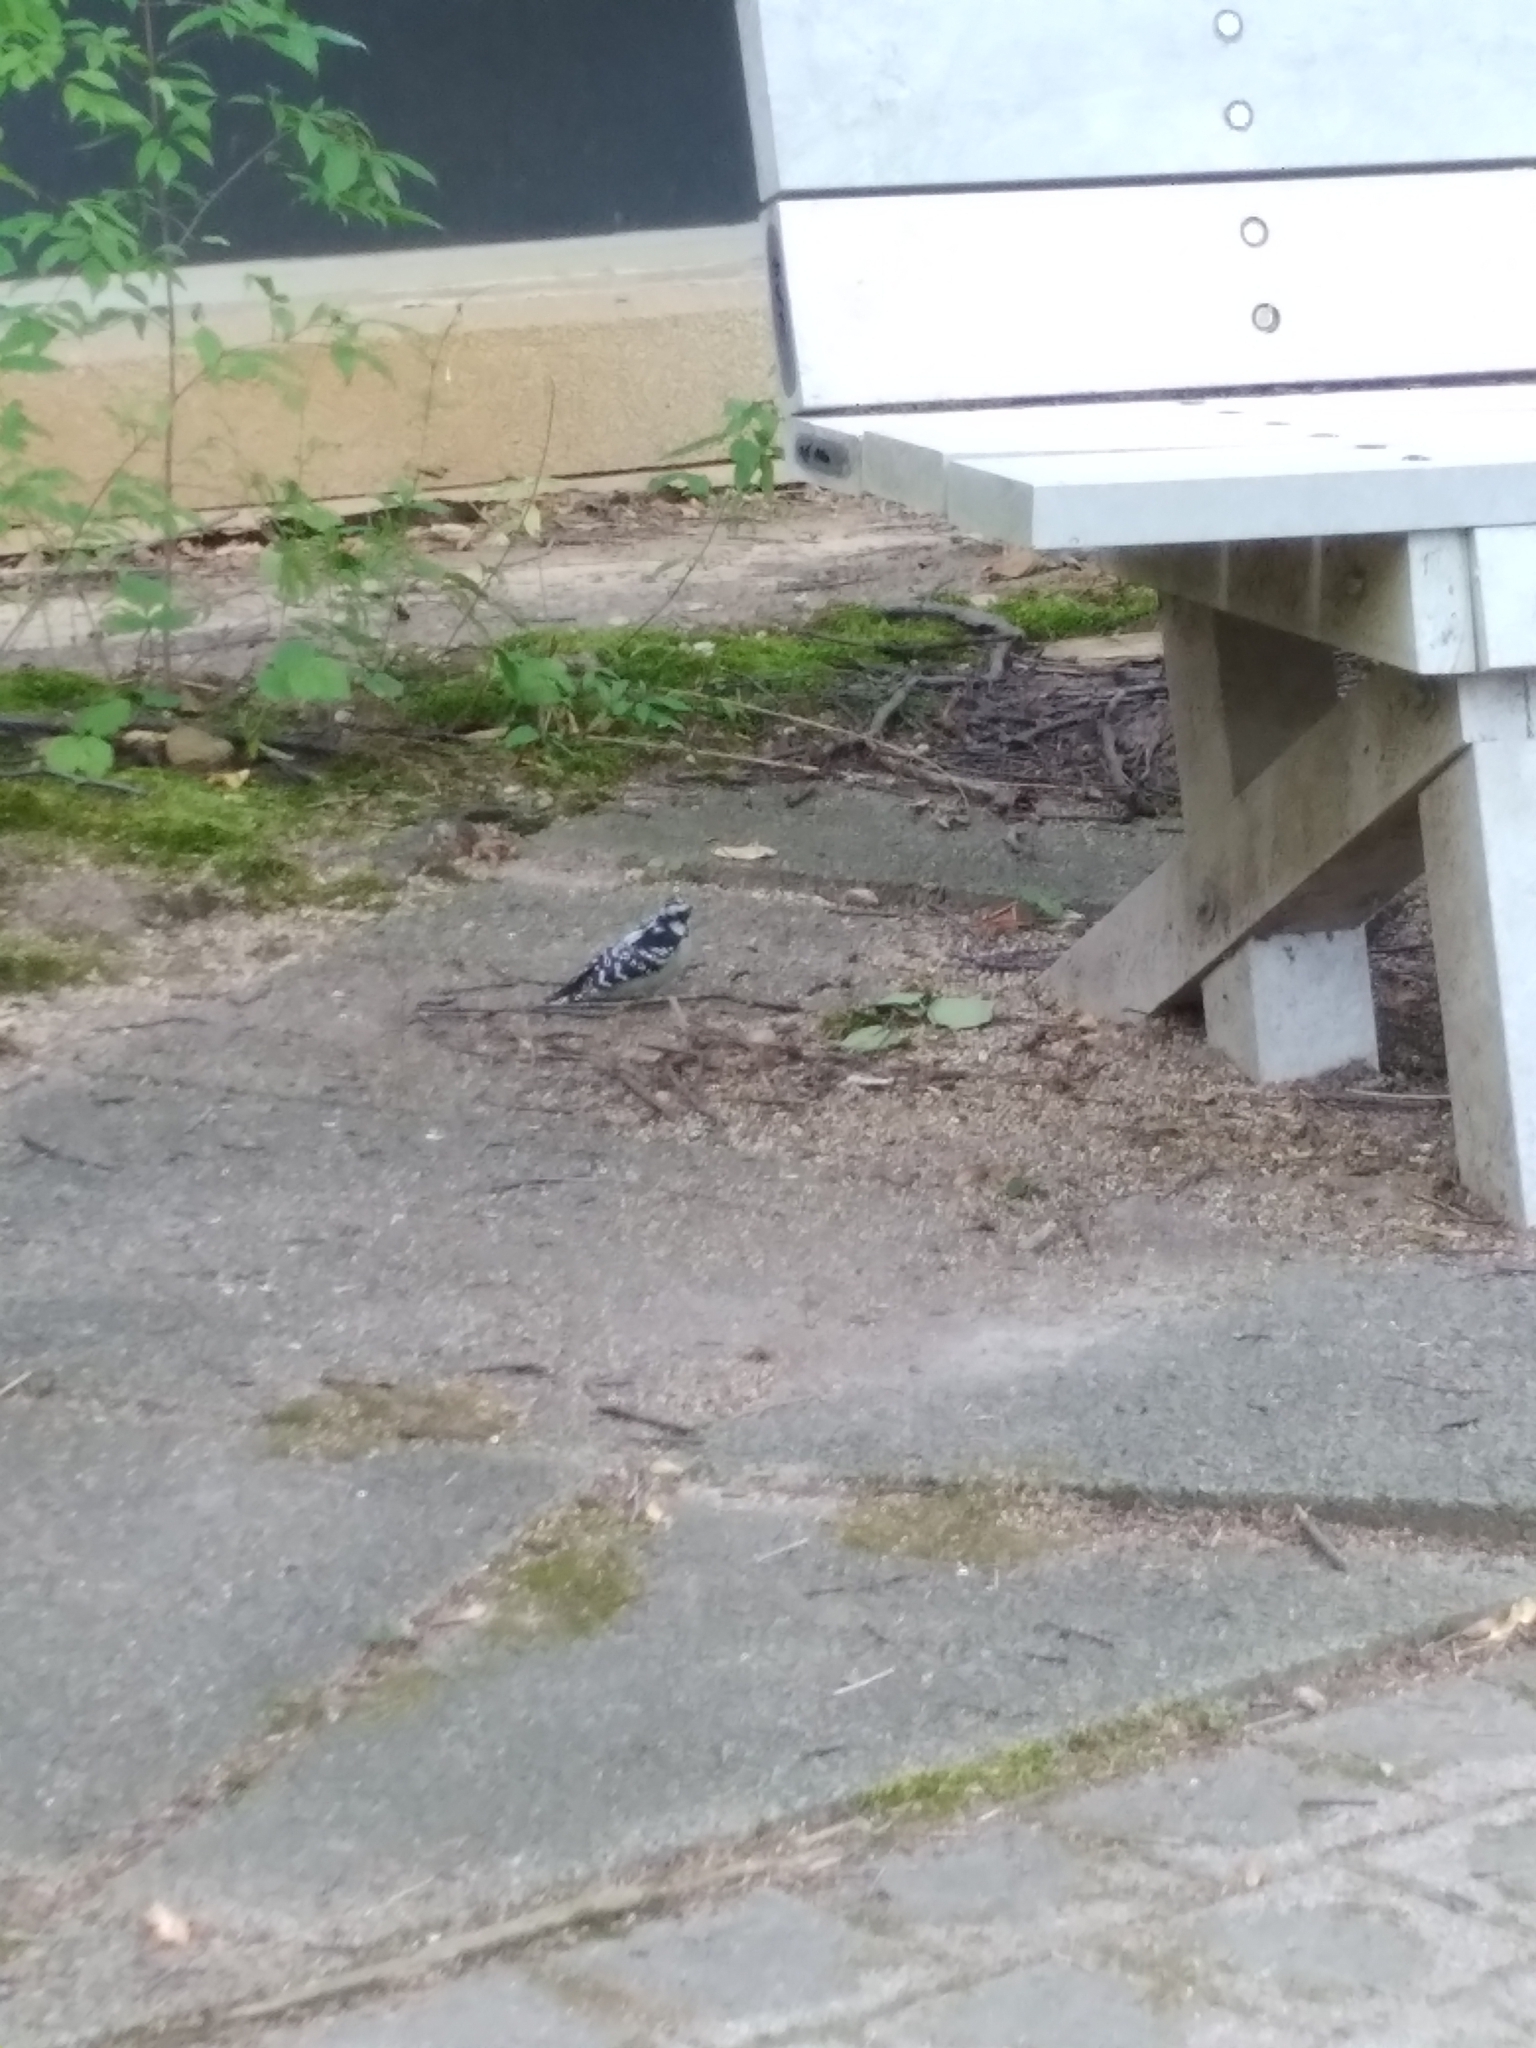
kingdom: Animalia
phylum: Chordata
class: Aves
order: Piciformes
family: Picidae
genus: Dryobates
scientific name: Dryobates pubescens
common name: Downy woodpecker
